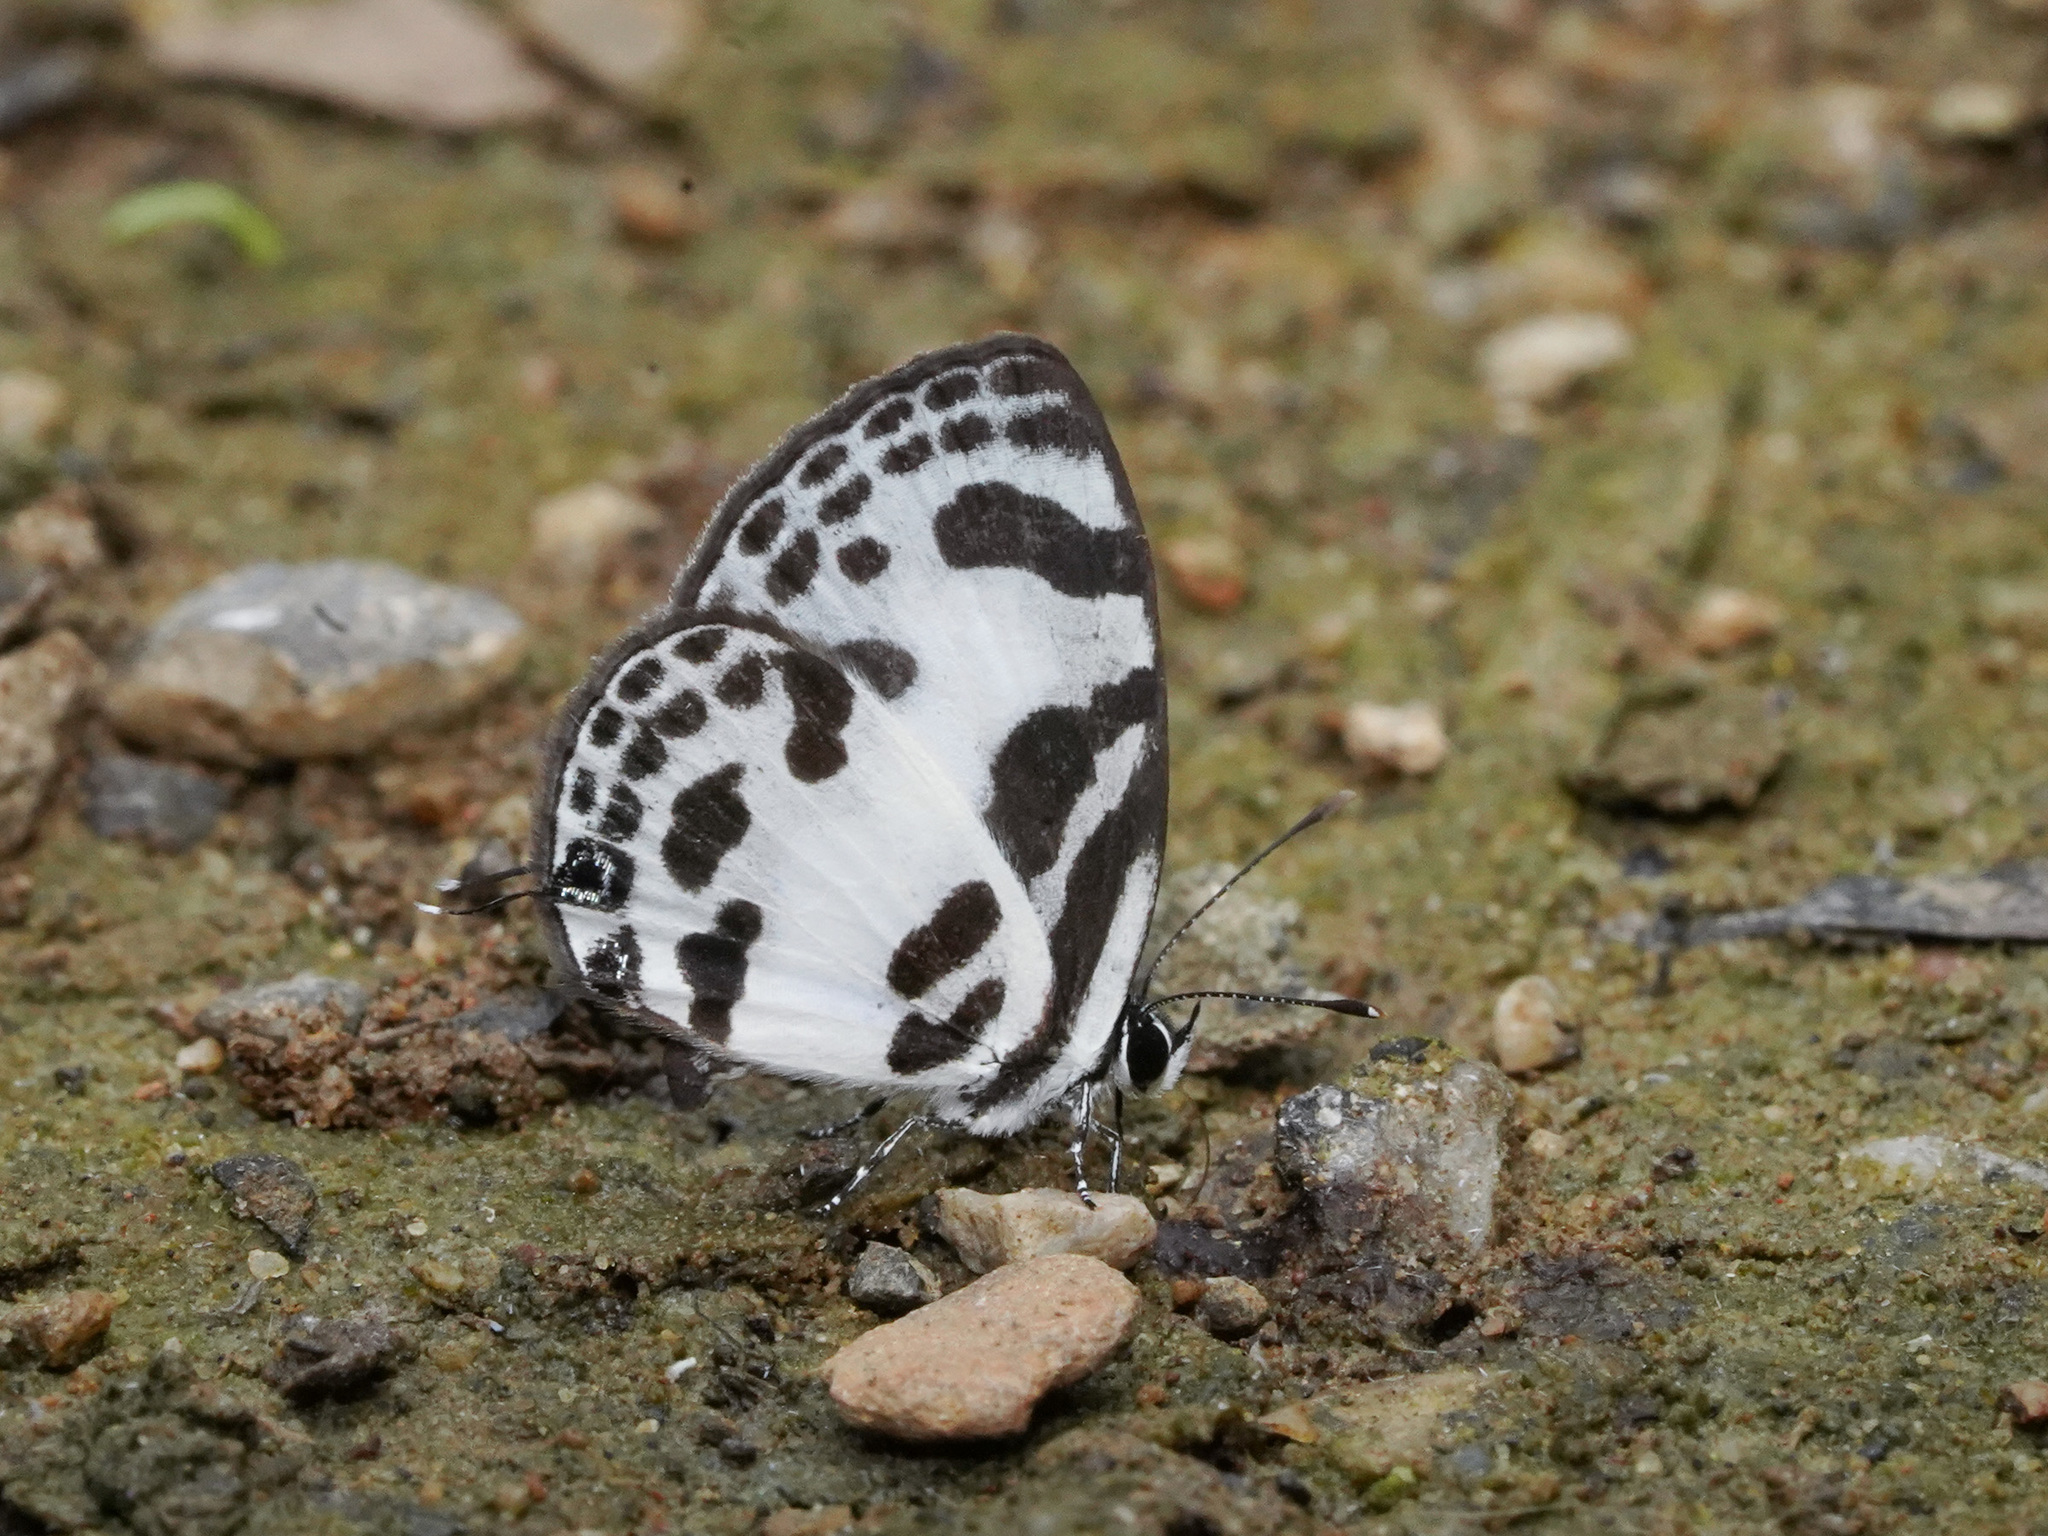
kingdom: Animalia
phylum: Arthropoda
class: Insecta
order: Lepidoptera
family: Lycaenidae
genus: Discolampa
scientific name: Discolampa ethion
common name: Banded blue pierrot
